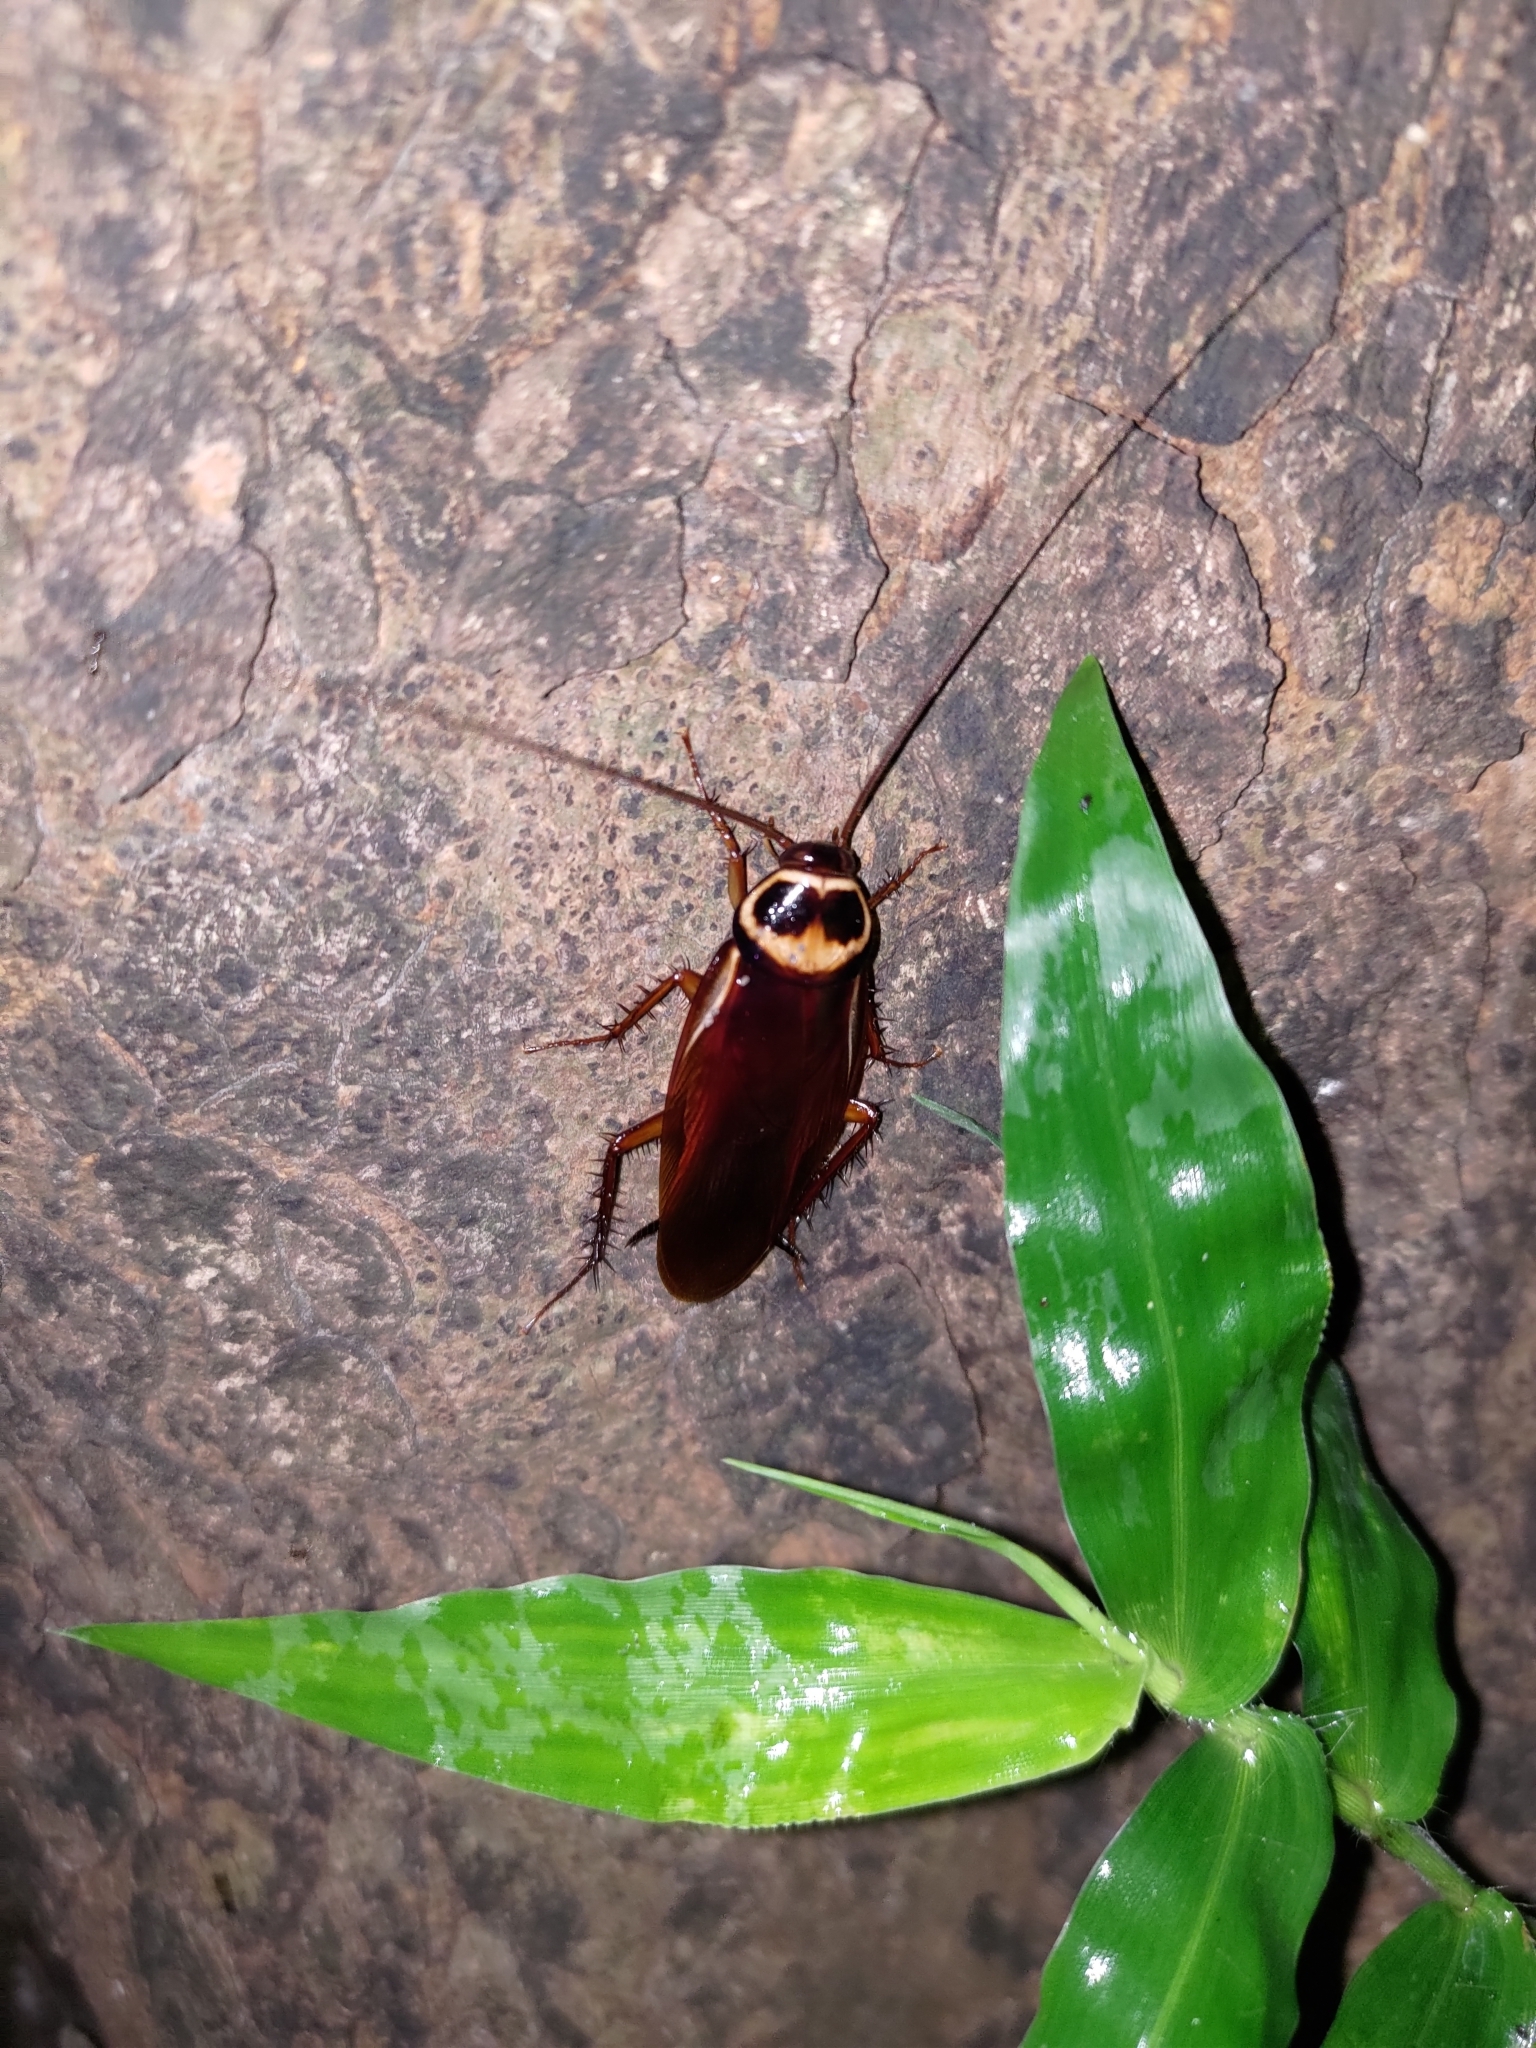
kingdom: Animalia
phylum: Arthropoda
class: Insecta
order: Blattodea
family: Blattidae
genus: Periplaneta
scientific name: Periplaneta australasiae
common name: Australian cockroach
